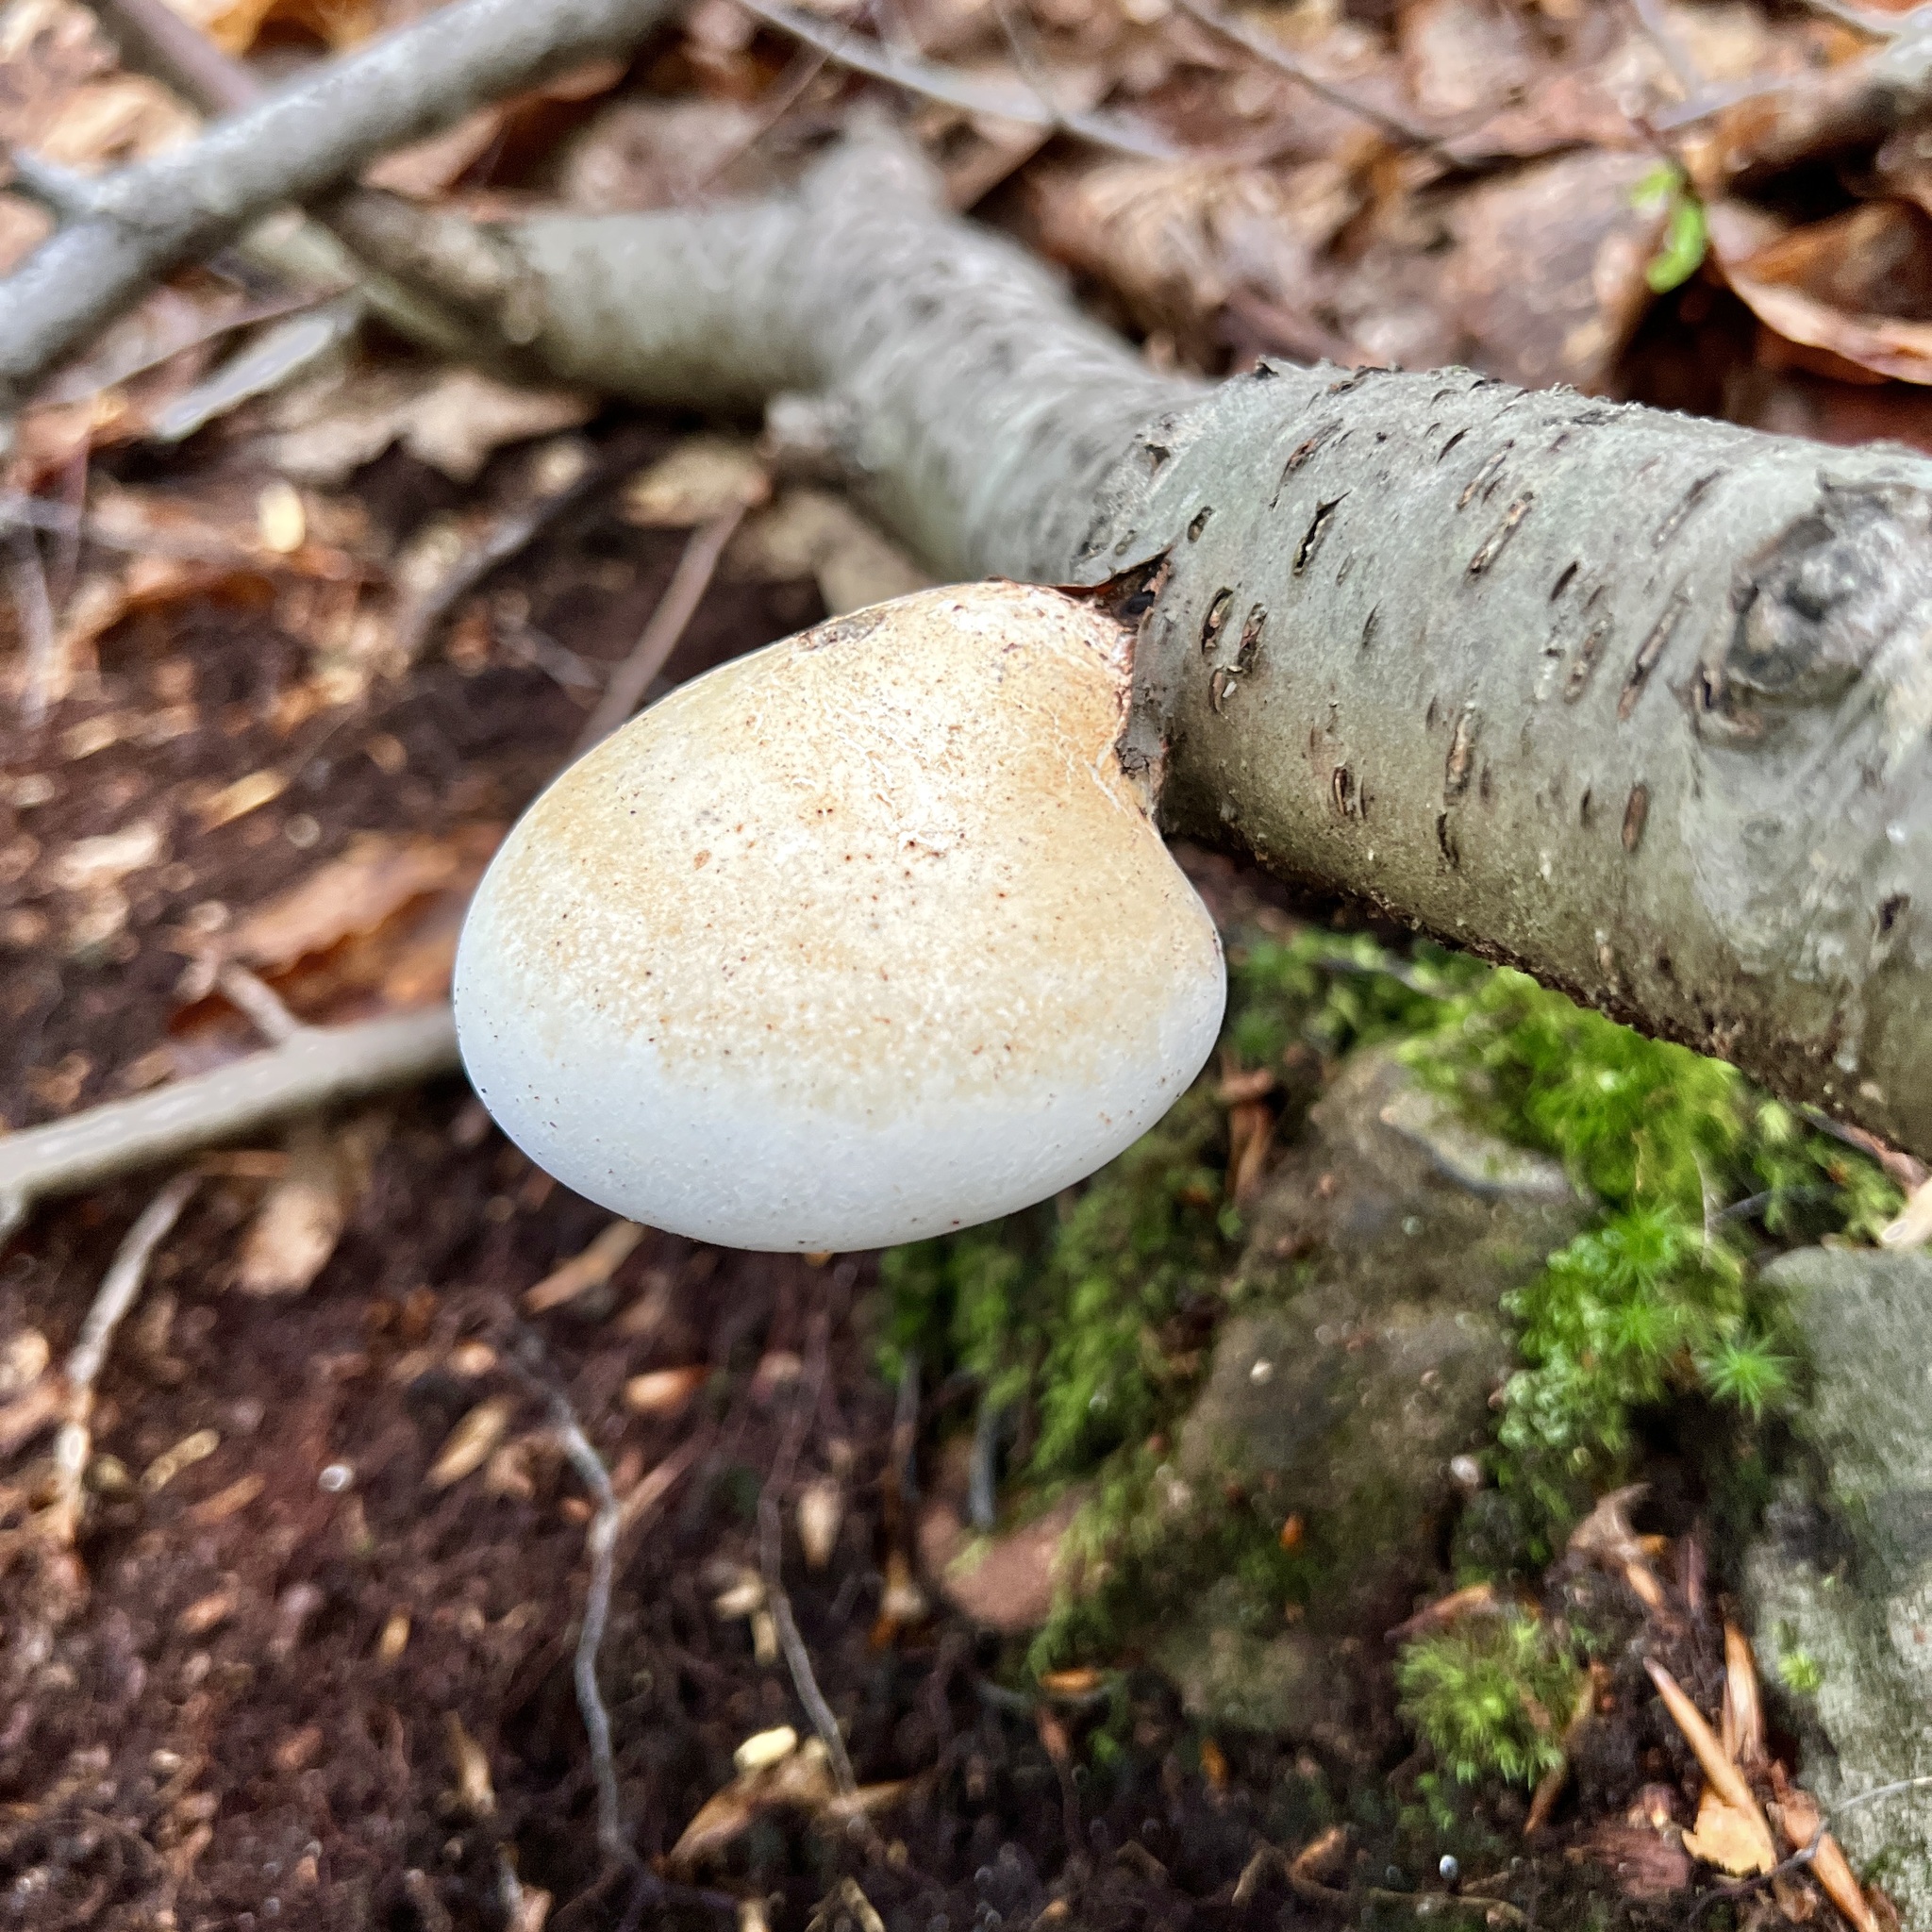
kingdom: Fungi
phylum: Basidiomycota
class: Agaricomycetes
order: Polyporales
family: Fomitopsidaceae
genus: Fomitopsis
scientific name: Fomitopsis betulina
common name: Birch polypore
